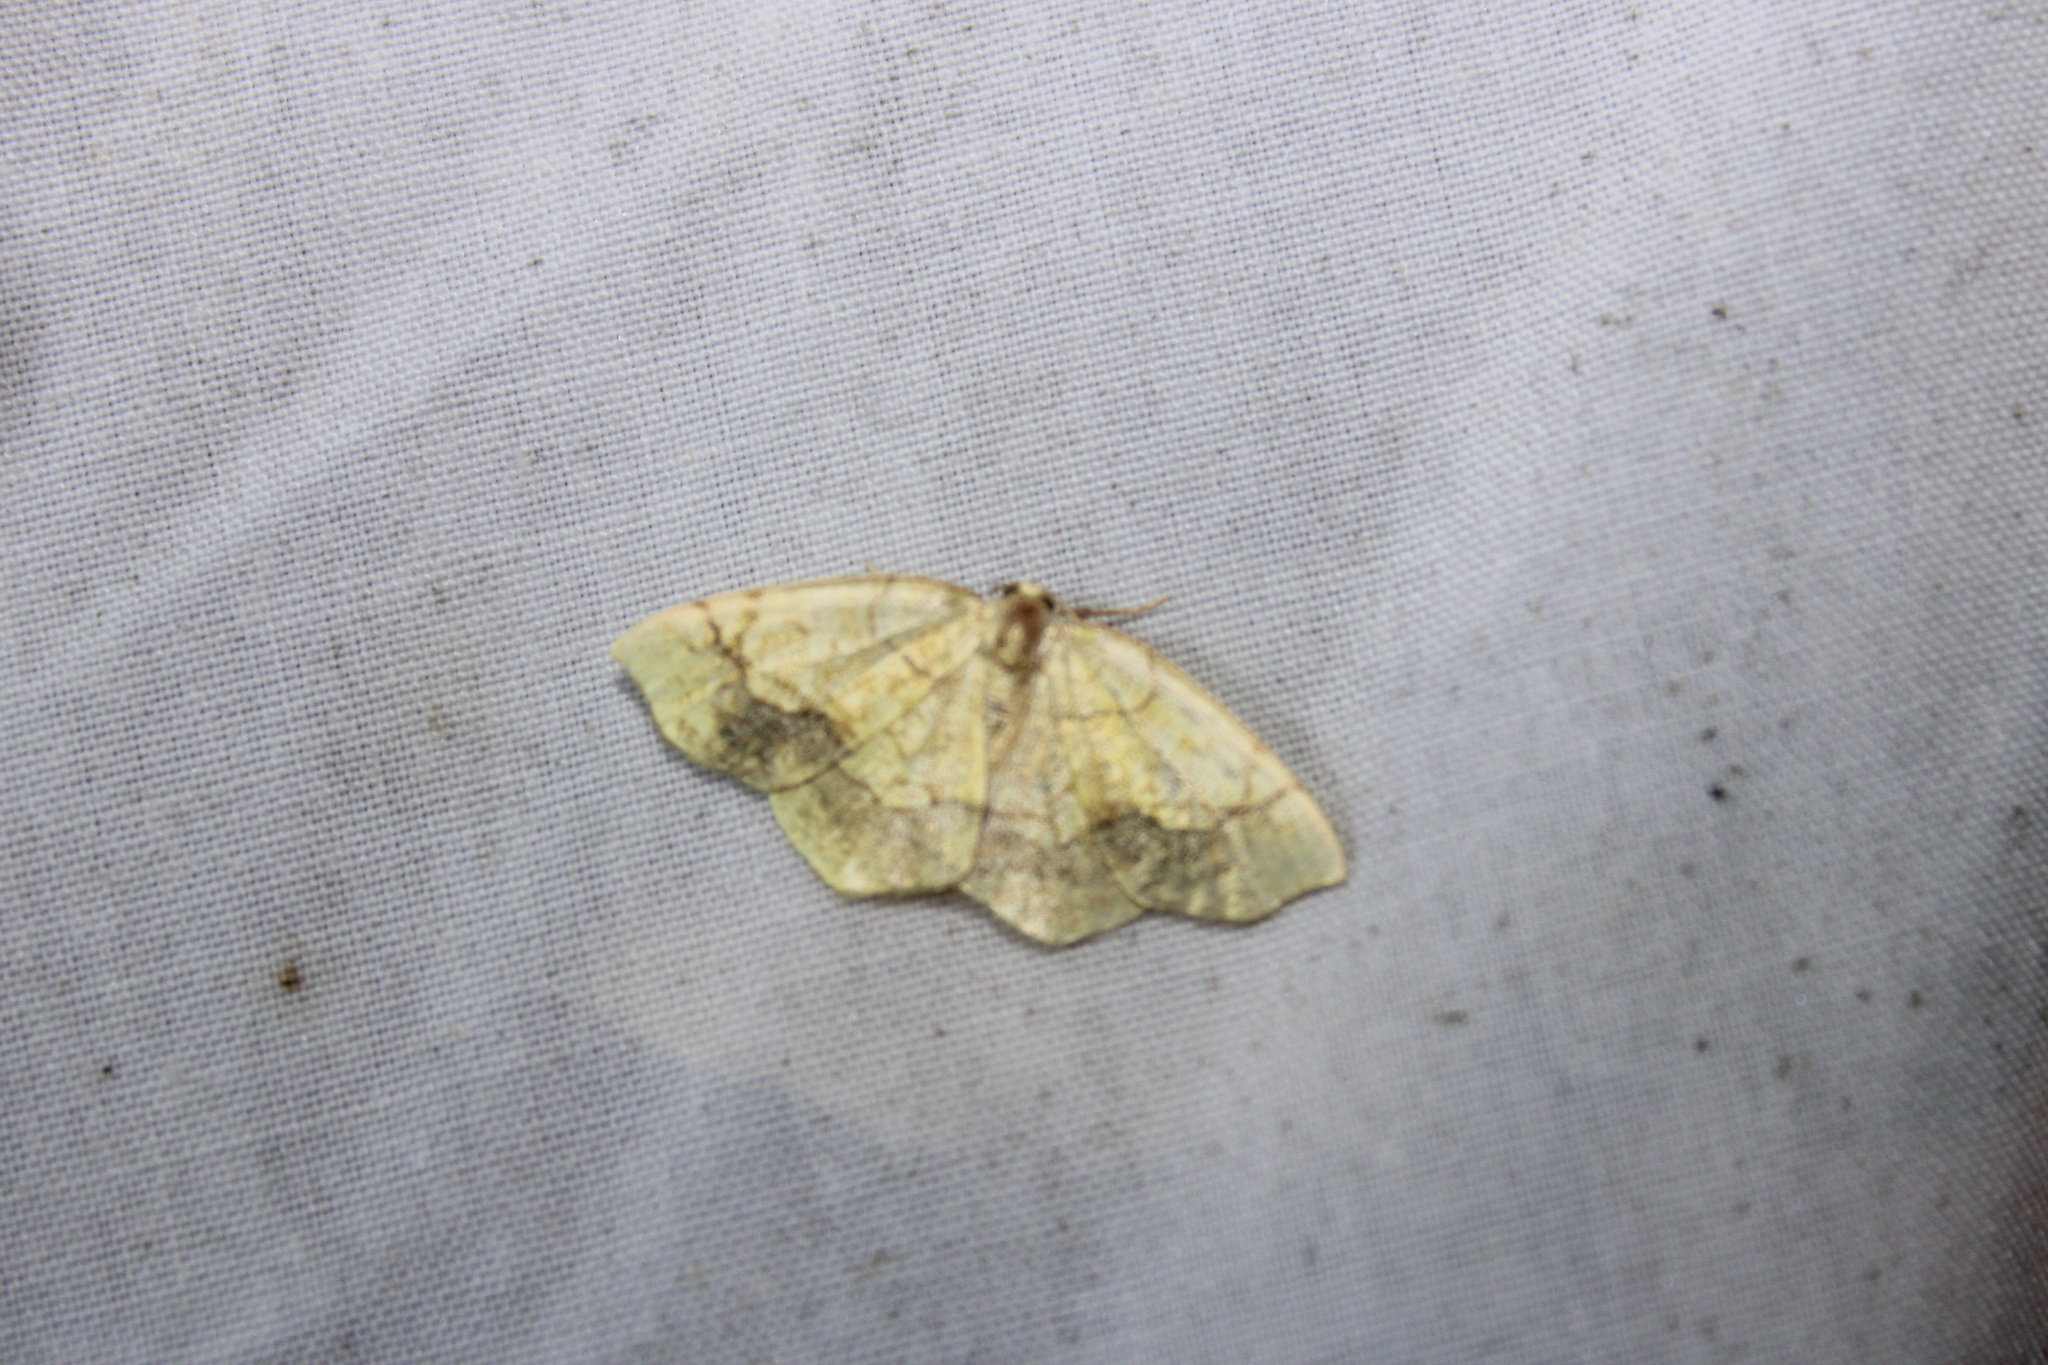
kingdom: Animalia
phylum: Arthropoda
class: Insecta
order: Lepidoptera
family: Geometridae
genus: Nematocampa
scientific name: Nematocampa resistaria
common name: Horned spanworm moth
